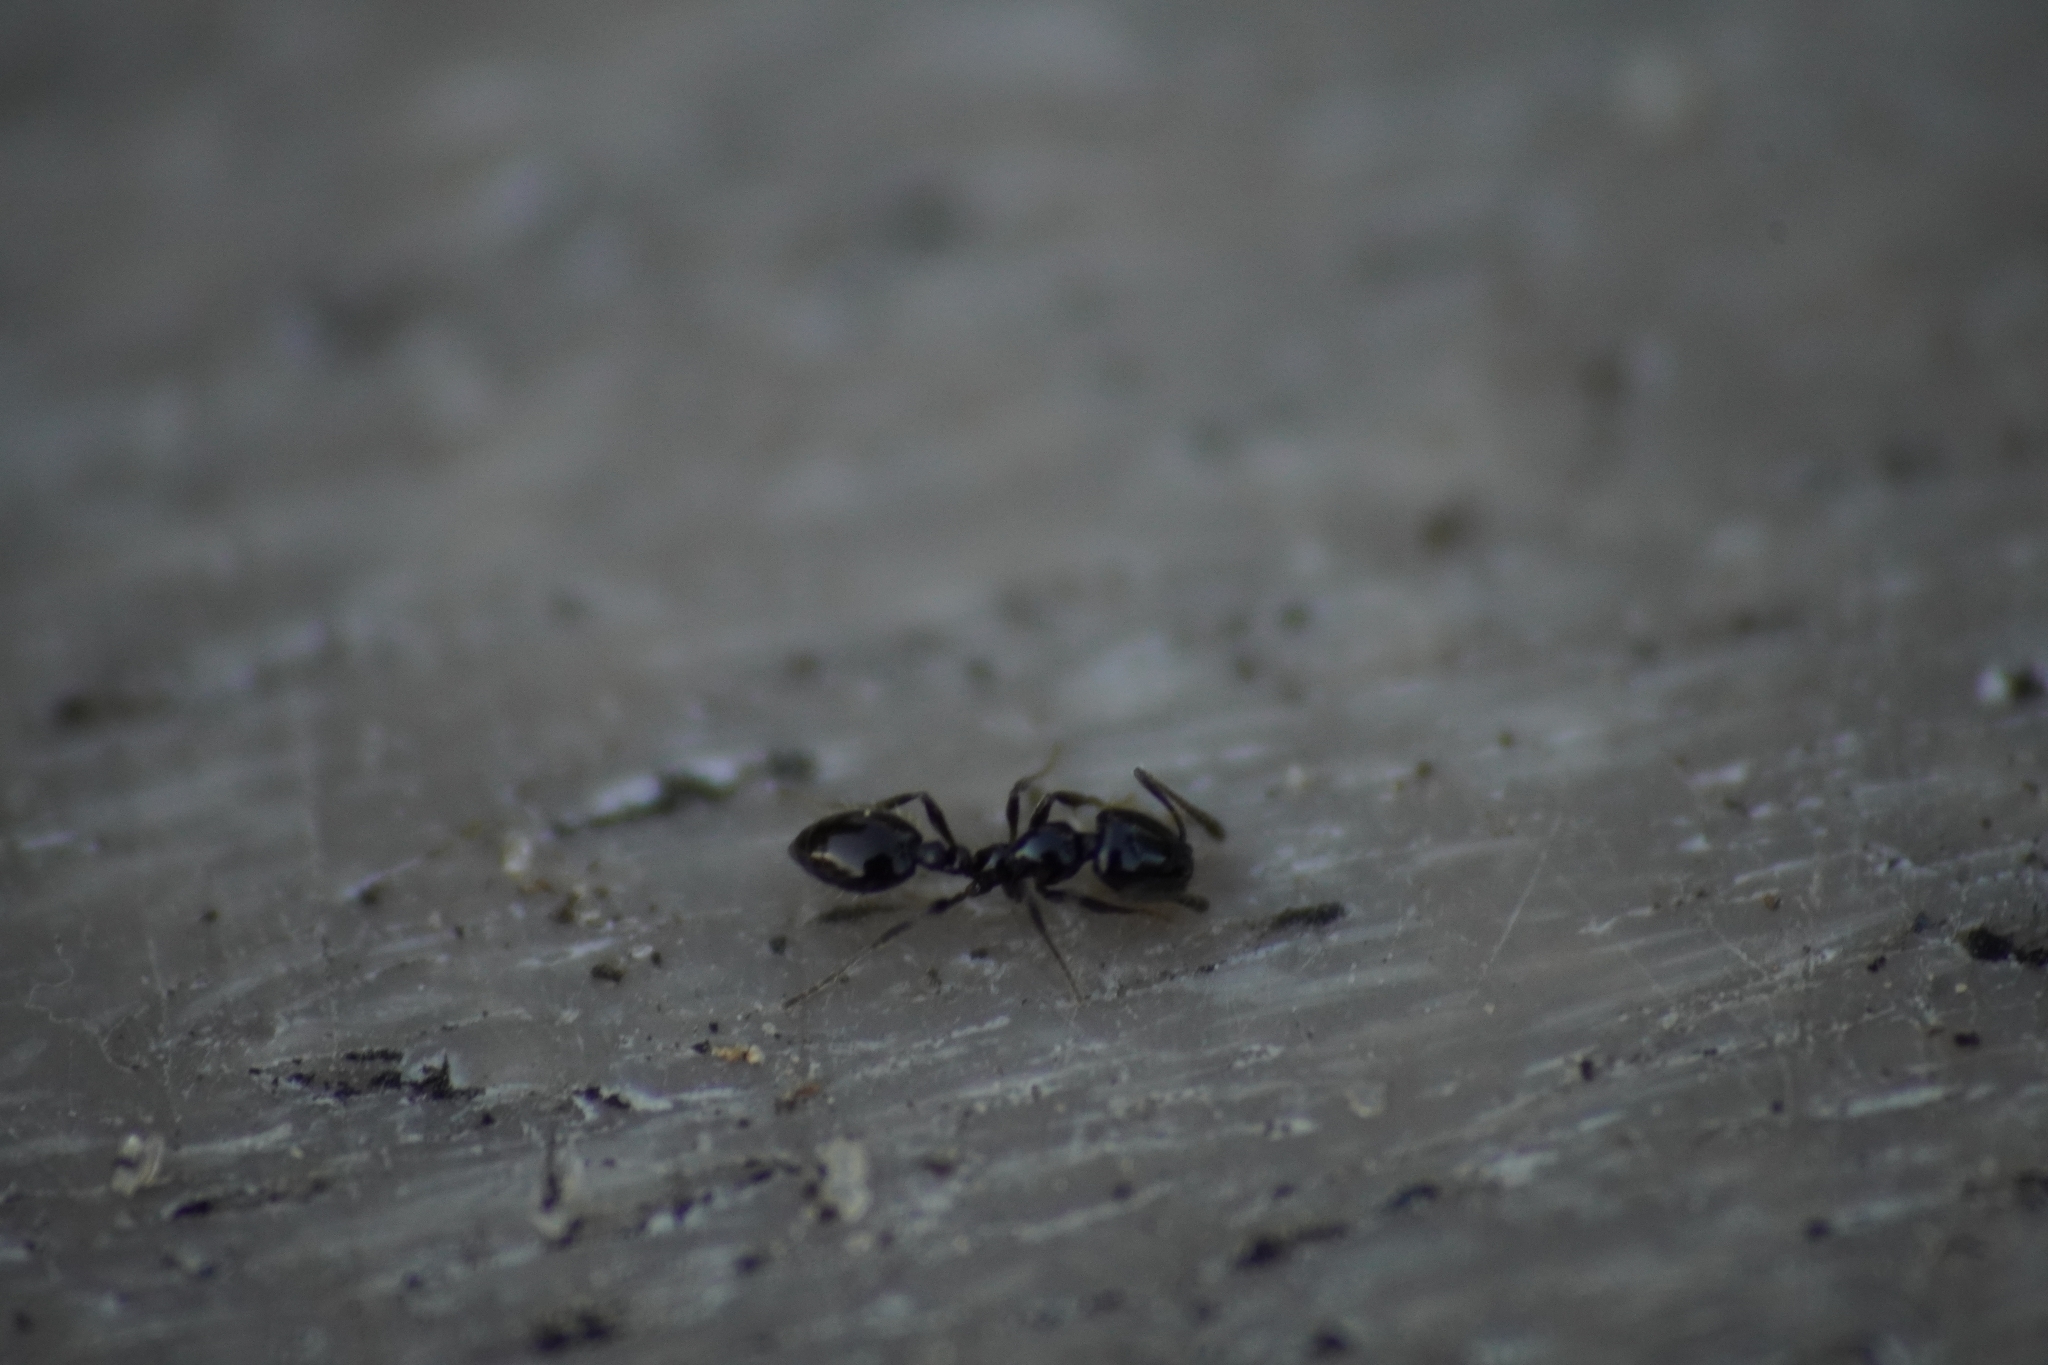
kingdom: Animalia
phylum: Arthropoda
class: Insecta
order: Hymenoptera
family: Formicidae
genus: Monomorium
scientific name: Monomorium
